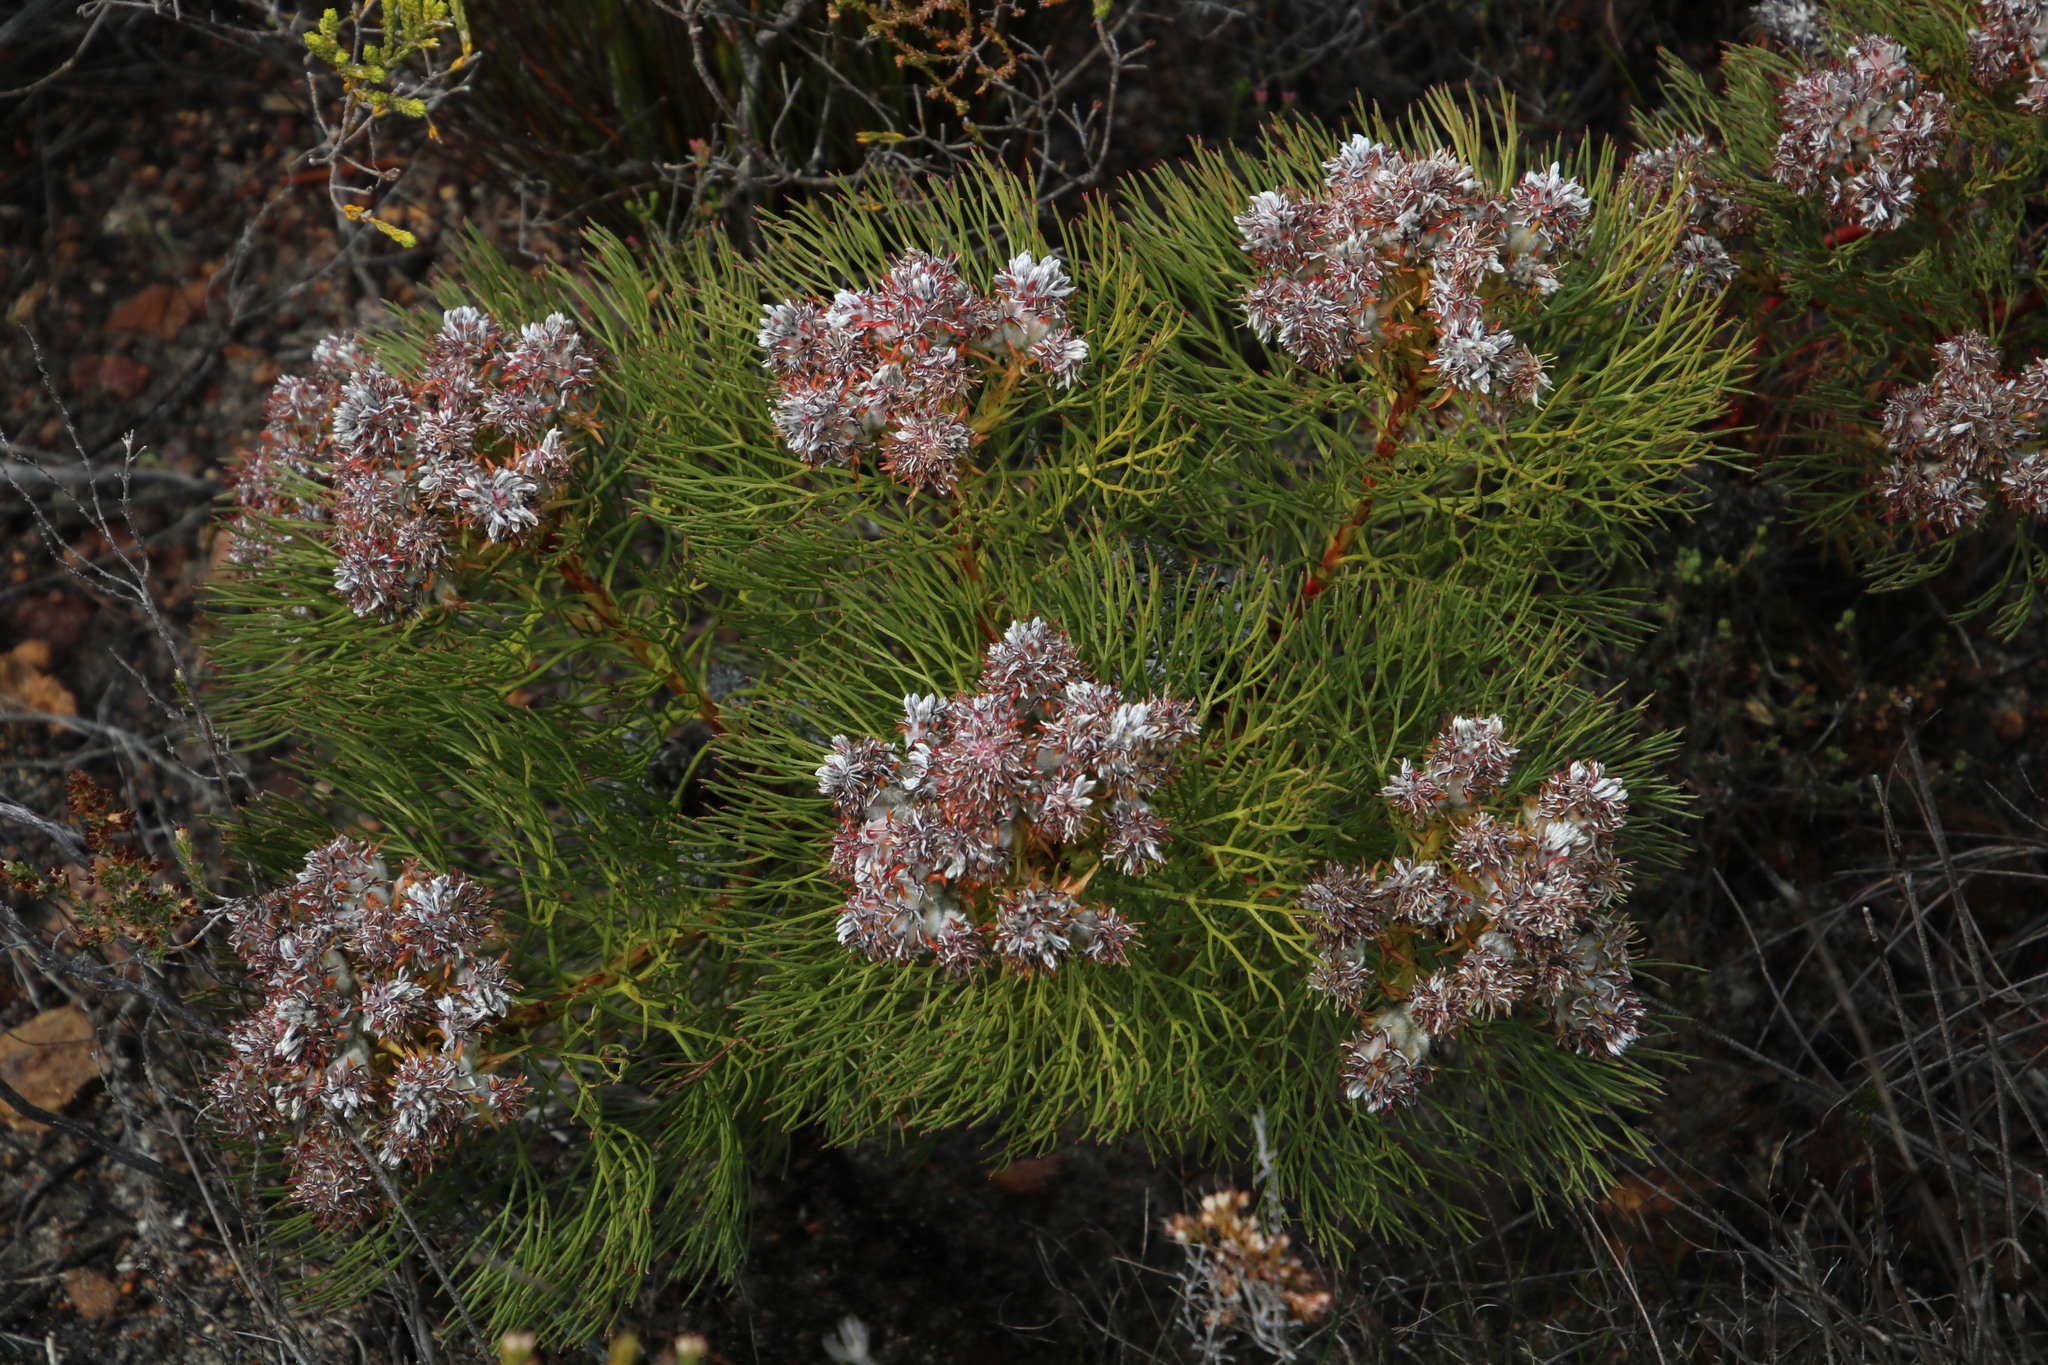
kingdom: Plantae
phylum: Tracheophyta
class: Magnoliopsida
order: Proteales
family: Proteaceae
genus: Serruria
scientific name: Serruria glomerata
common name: Cluster spiderhead
